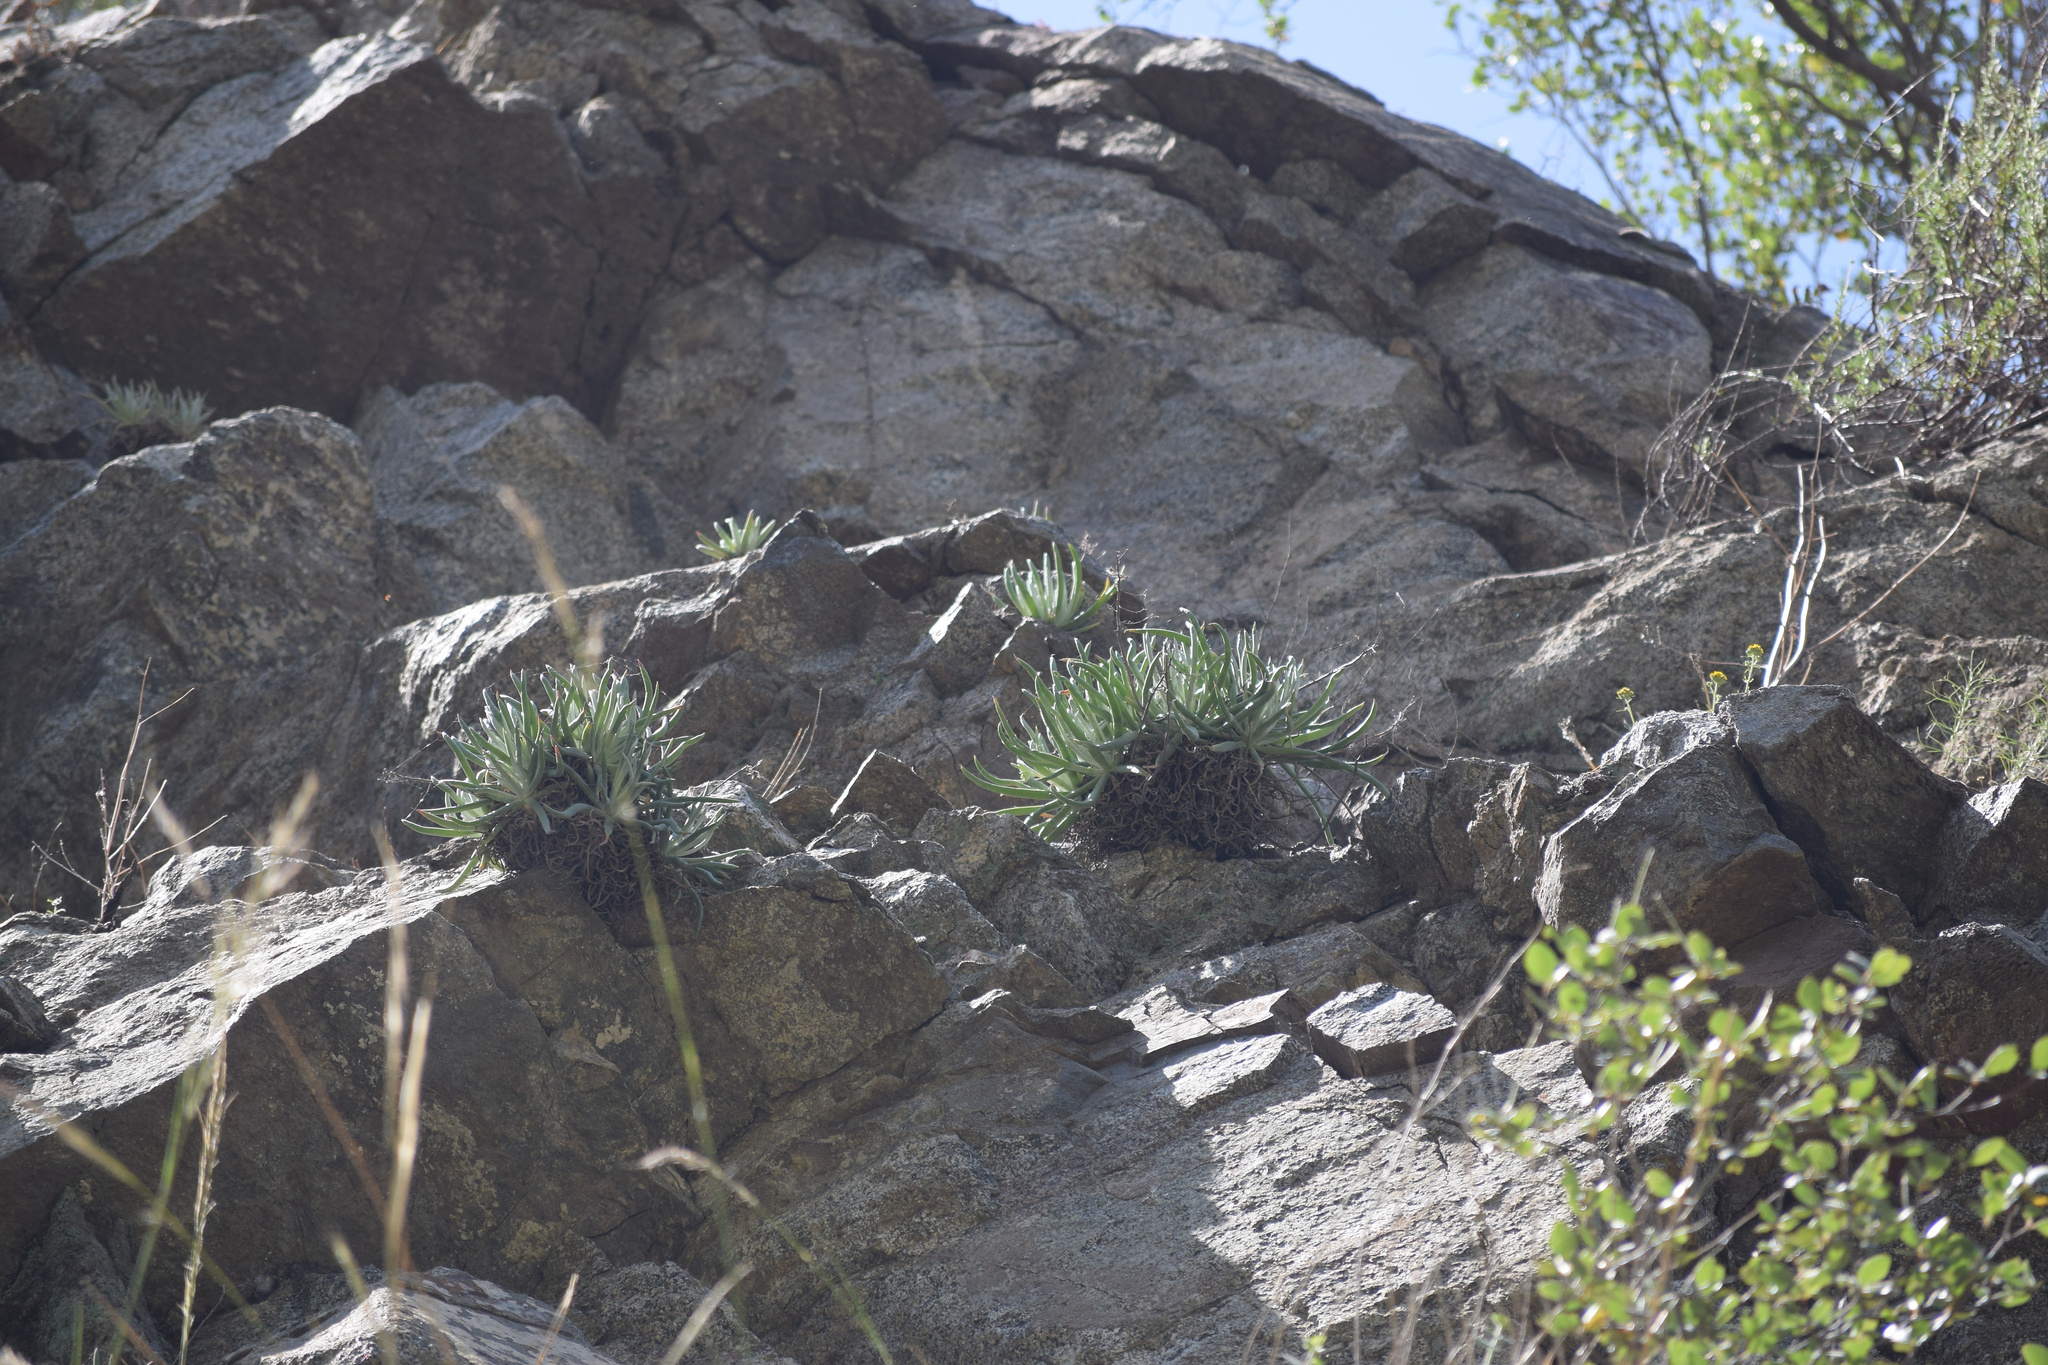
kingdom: Plantae
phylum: Tracheophyta
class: Magnoliopsida
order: Saxifragales
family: Crassulaceae
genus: Dudleya
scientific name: Dudleya densiflora
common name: San gabriel mountains dudleya
